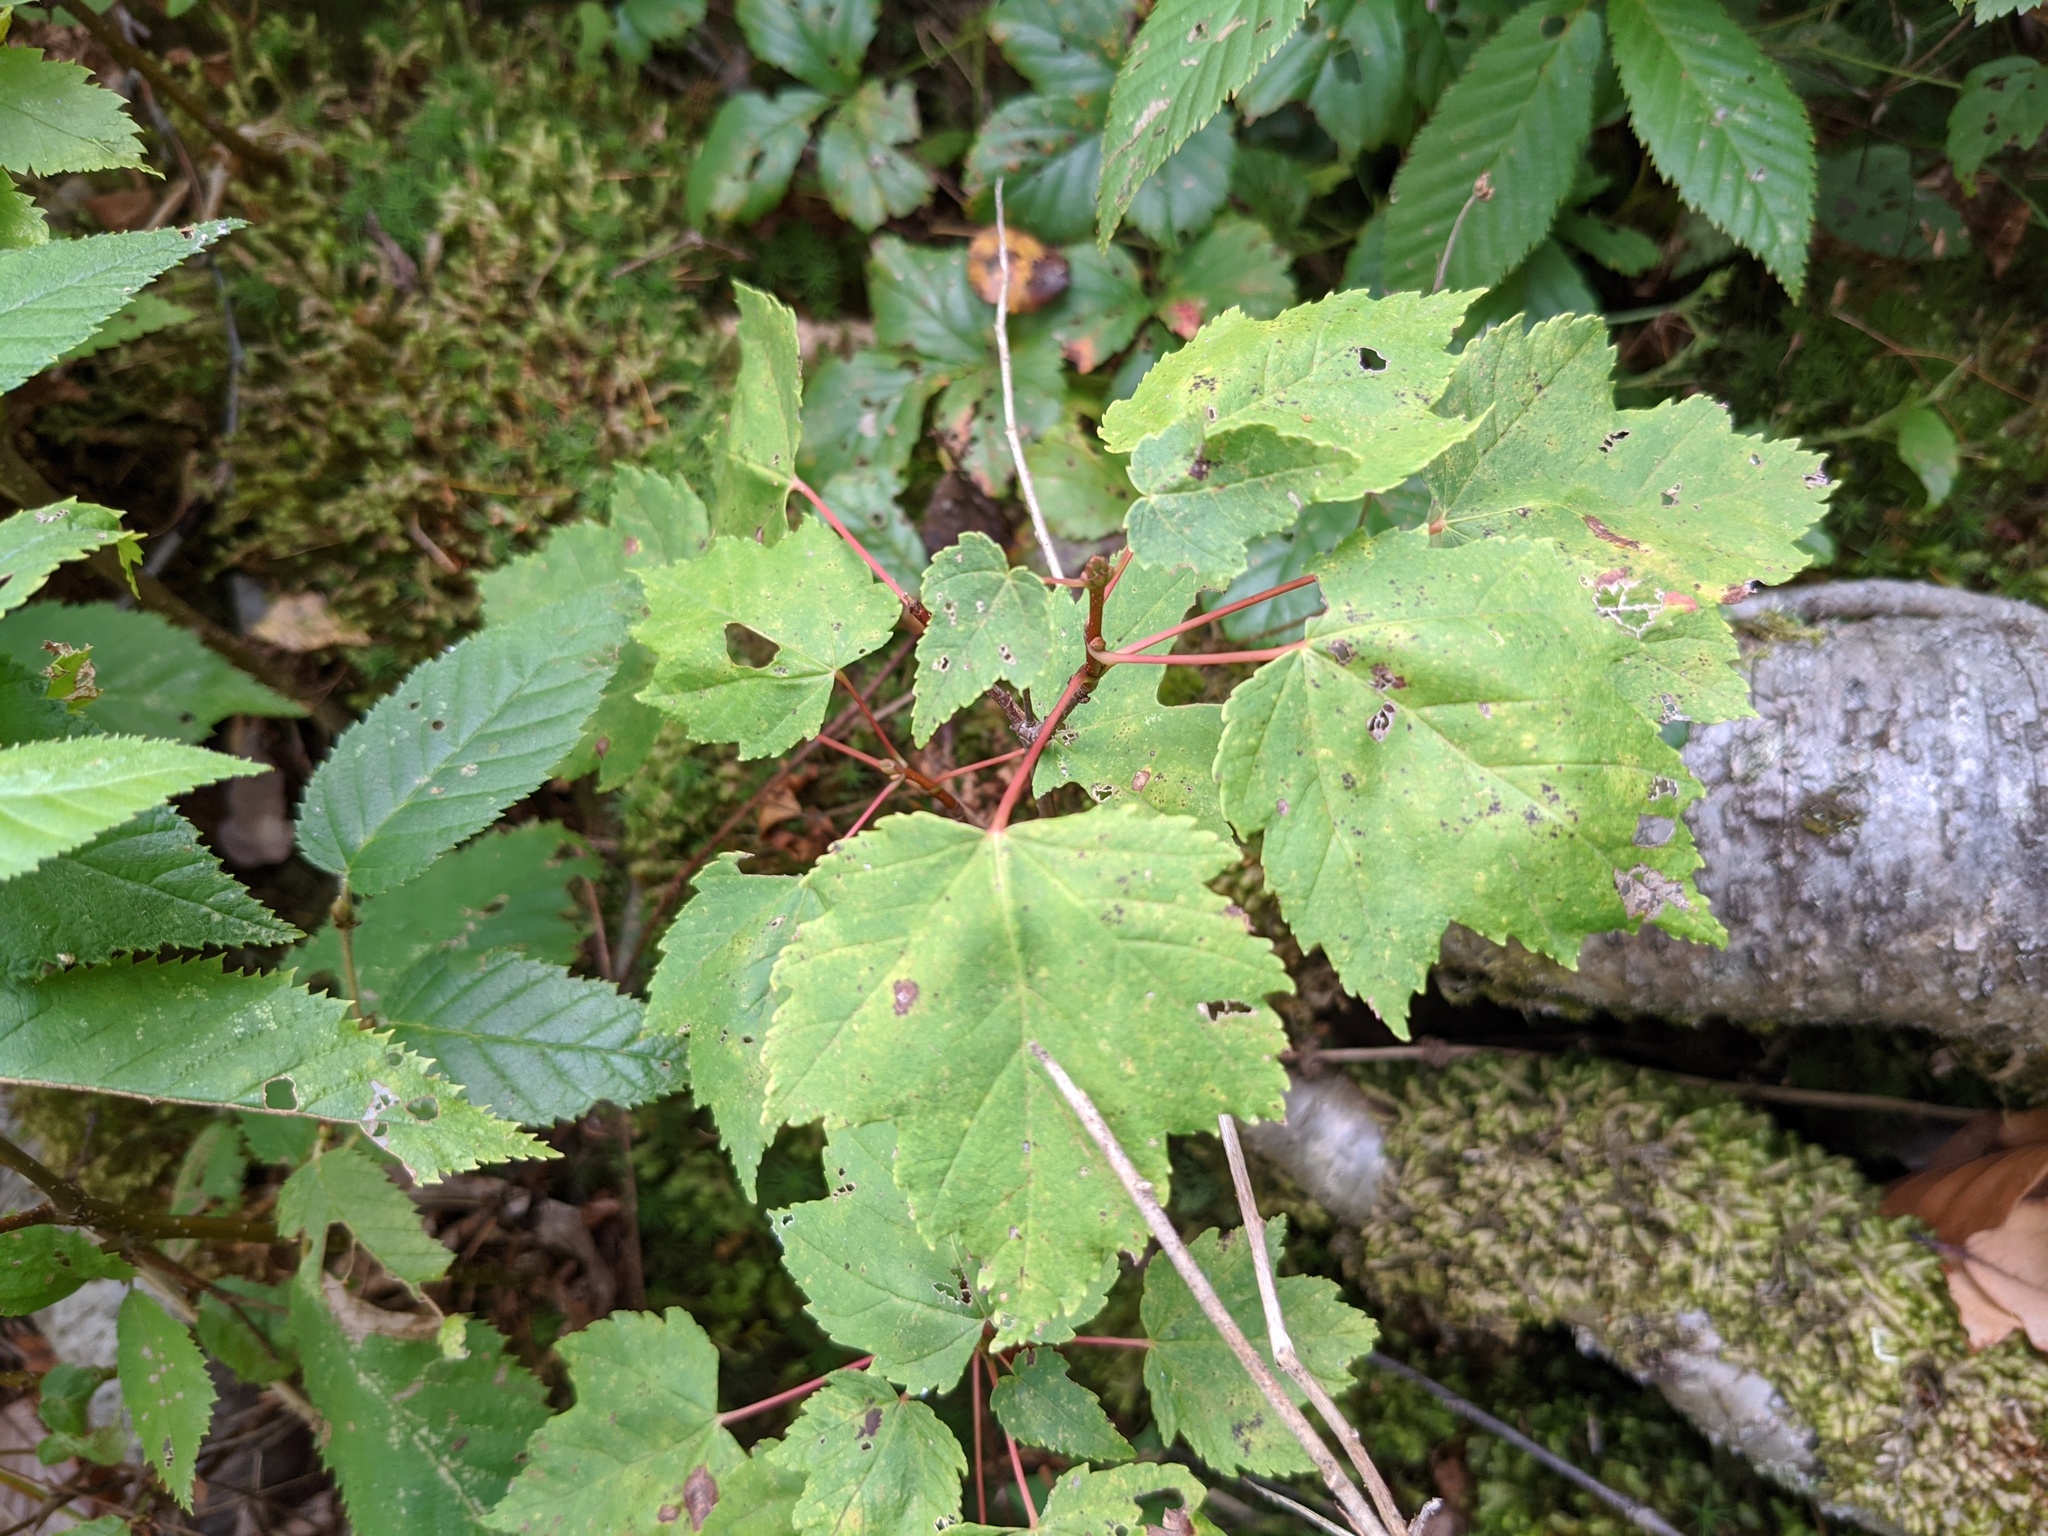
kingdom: Plantae
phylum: Tracheophyta
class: Magnoliopsida
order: Sapindales
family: Sapindaceae
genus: Acer
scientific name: Acer rubrum
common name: Red maple
